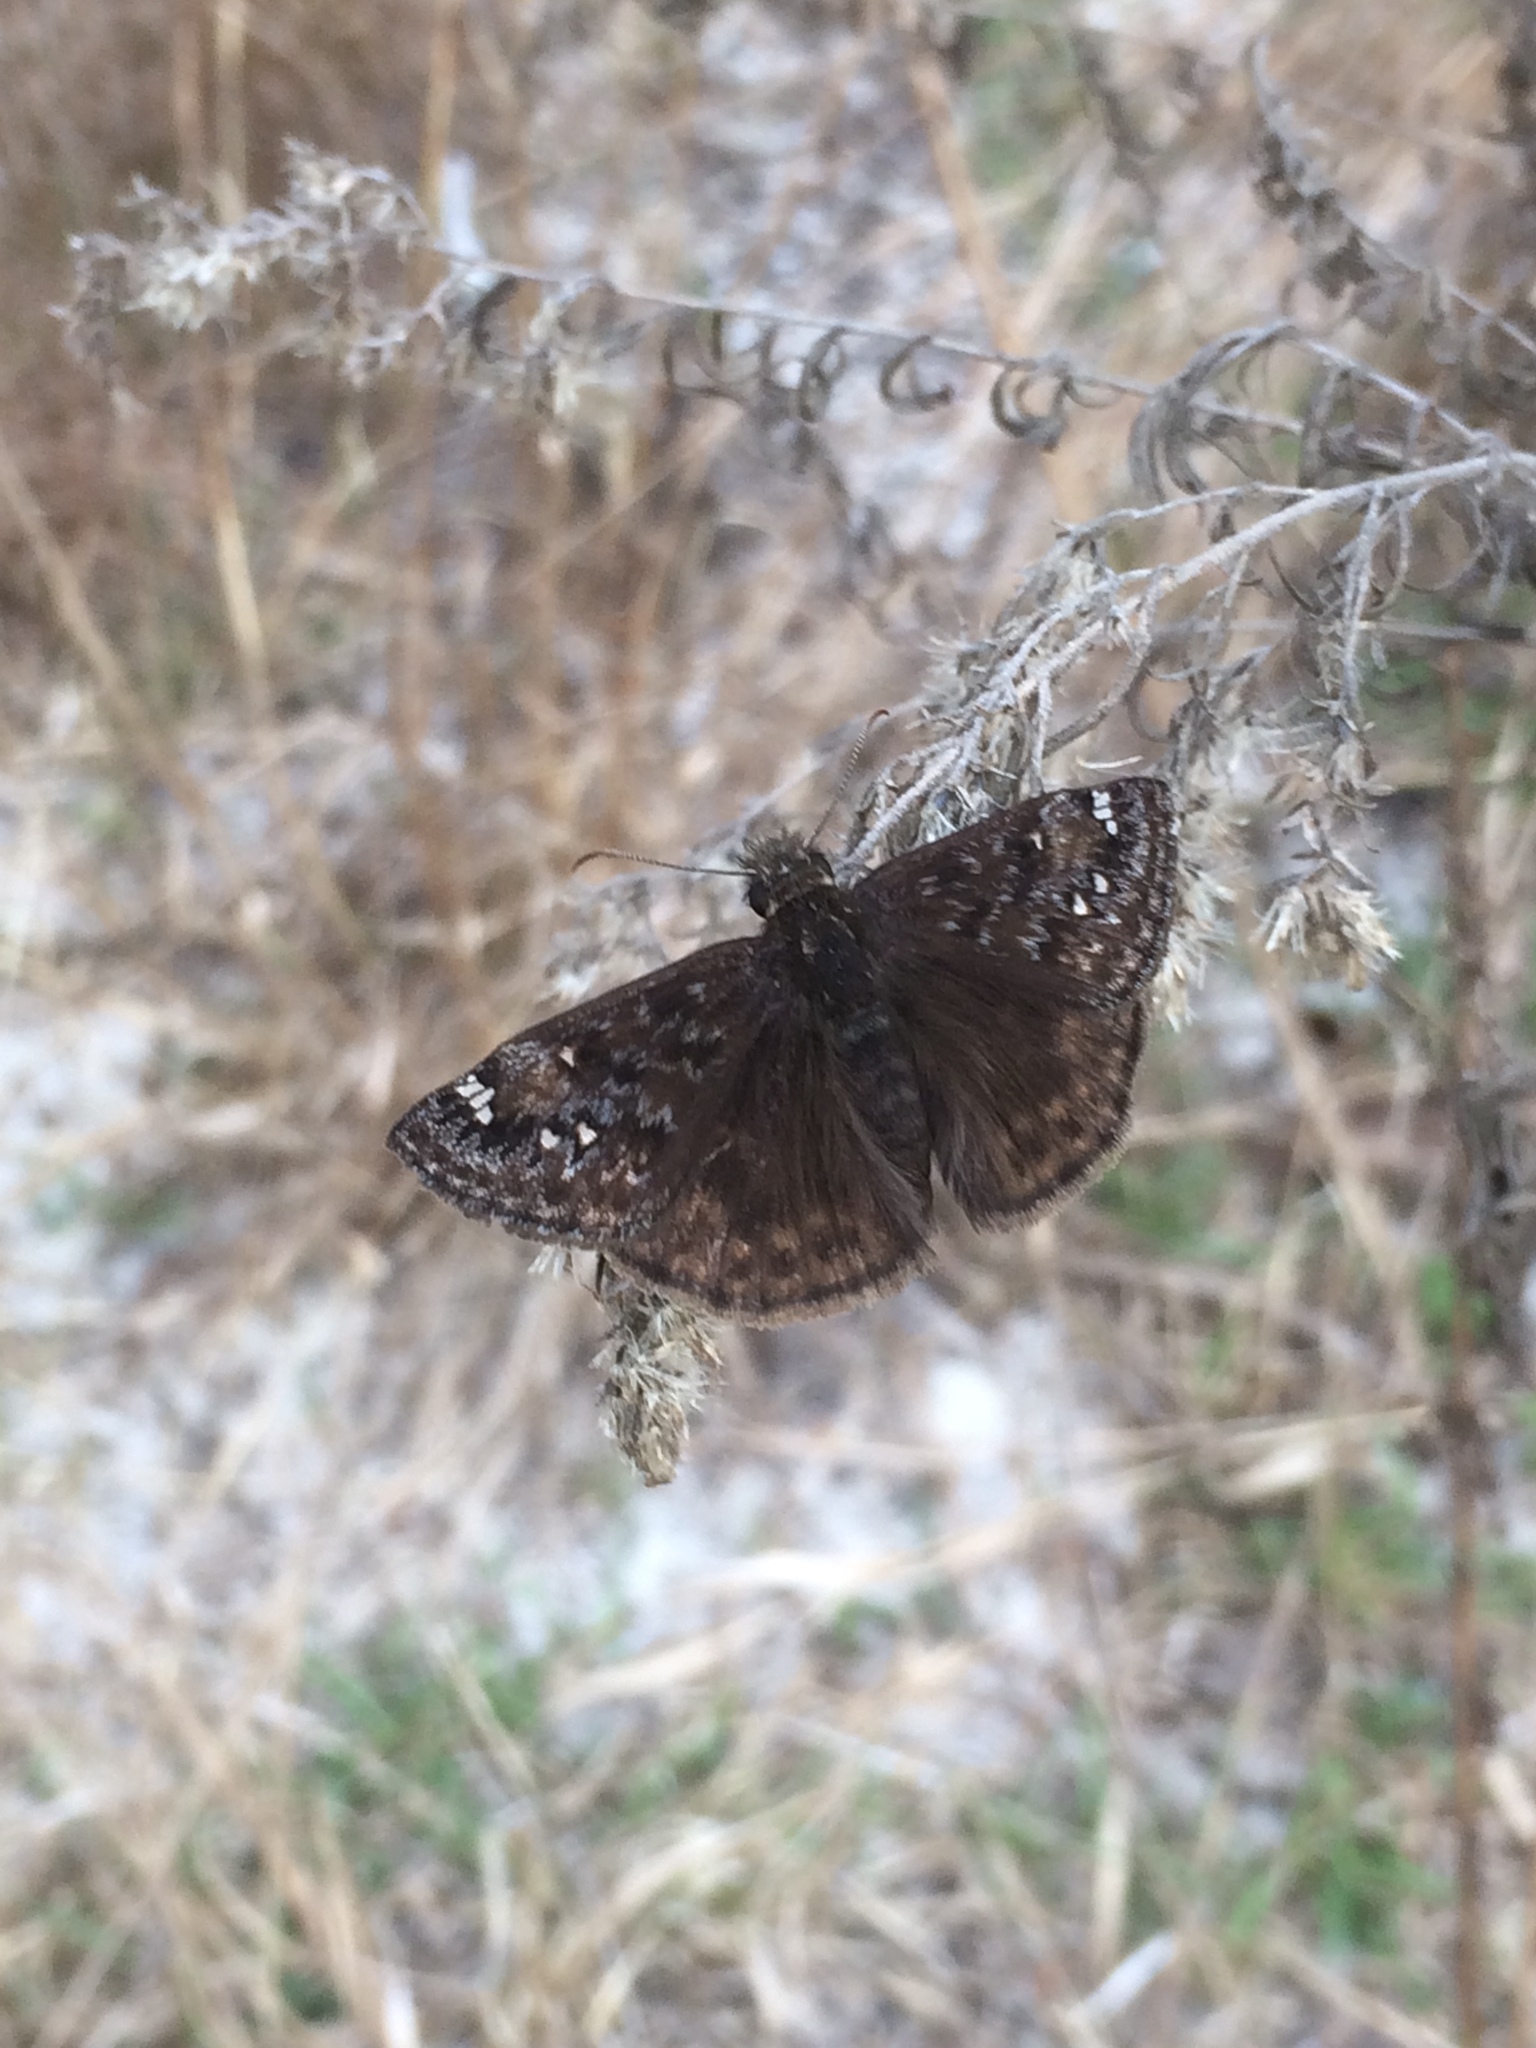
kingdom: Animalia
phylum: Arthropoda
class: Insecta
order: Lepidoptera
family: Hesperiidae
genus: Erynnis
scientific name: Erynnis horatius
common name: Horace's duskywing
